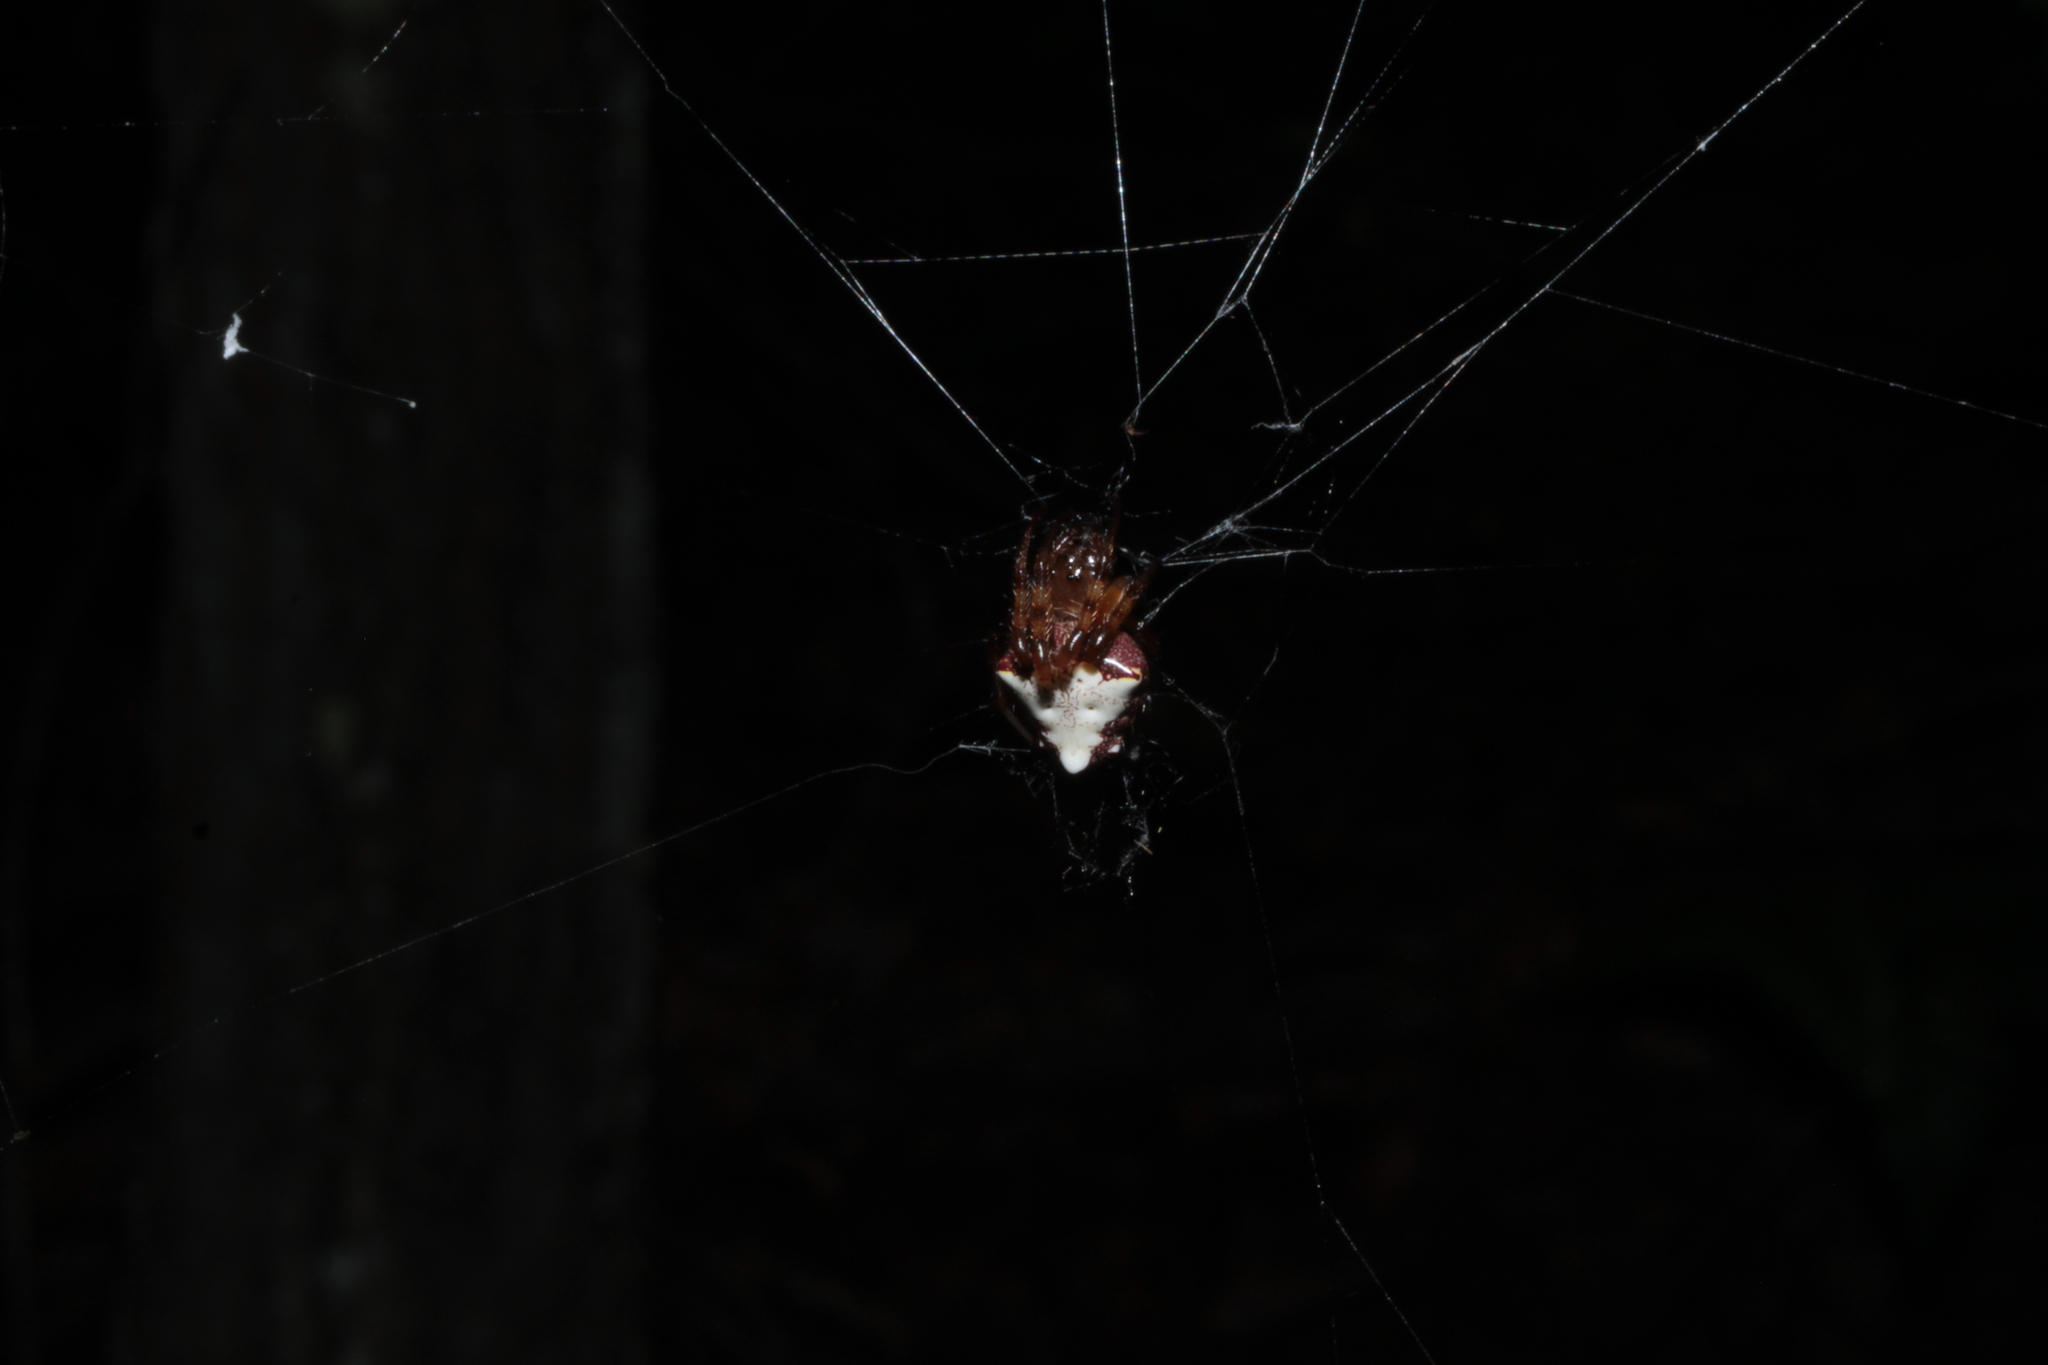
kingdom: Animalia
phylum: Arthropoda
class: Arachnida
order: Araneae
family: Araneidae
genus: Verrucosa
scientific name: Verrucosa arenata
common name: Orb weavers
